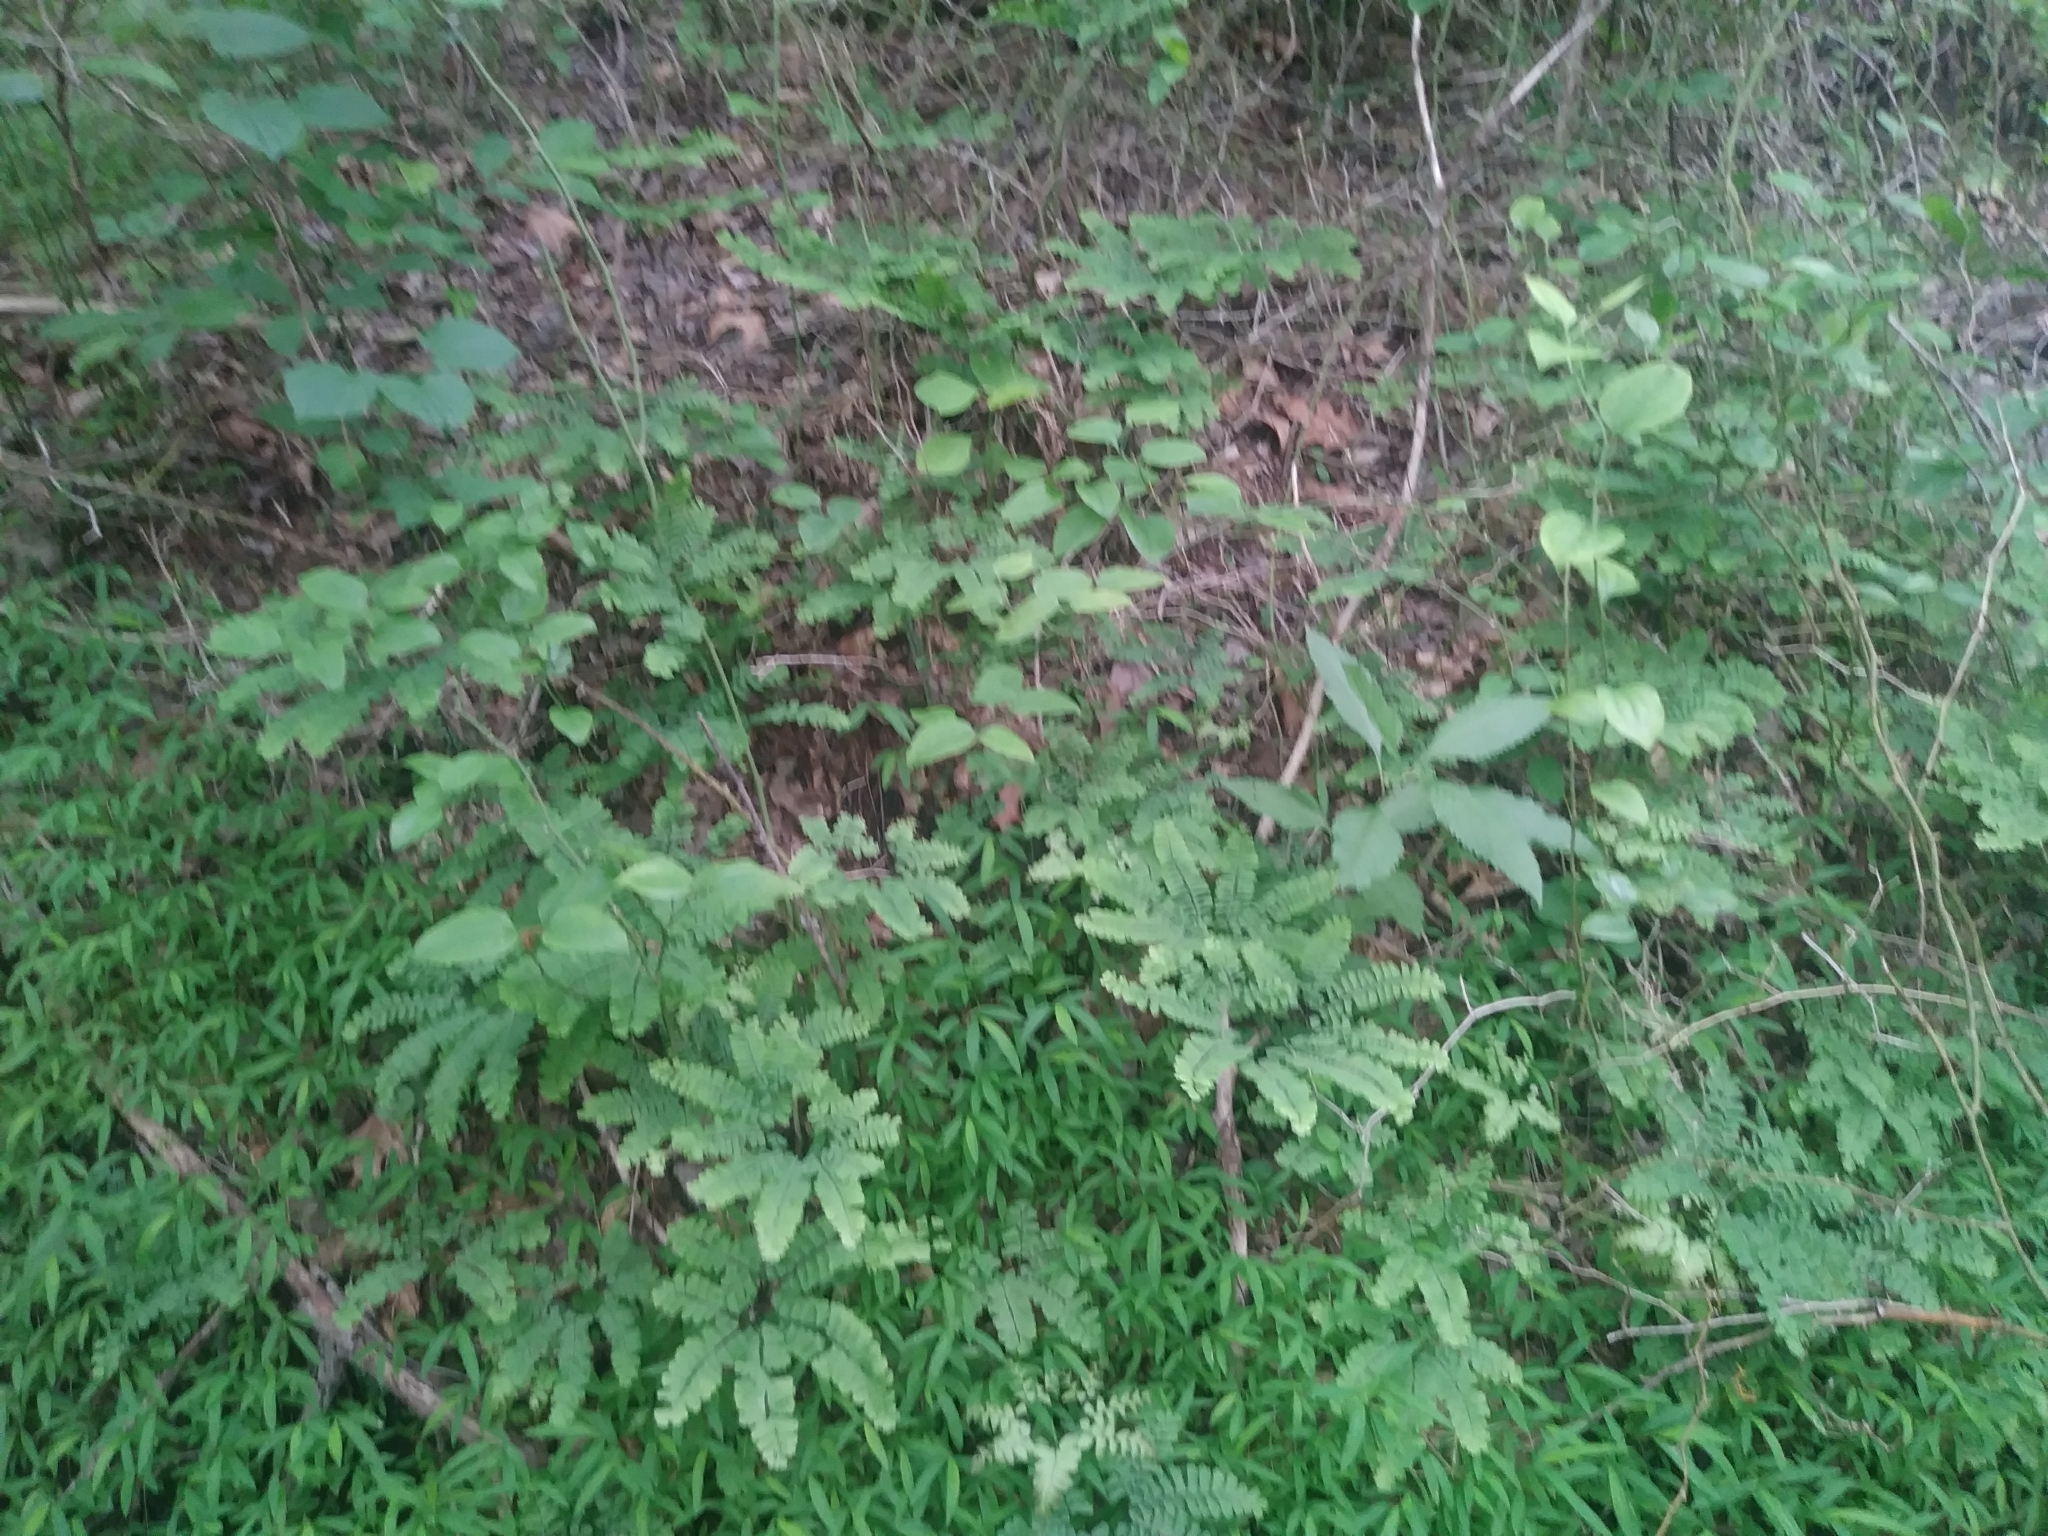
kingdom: Plantae
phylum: Tracheophyta
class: Polypodiopsida
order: Polypodiales
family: Pteridaceae
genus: Adiantum
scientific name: Adiantum pedatum
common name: Five-finger fern
